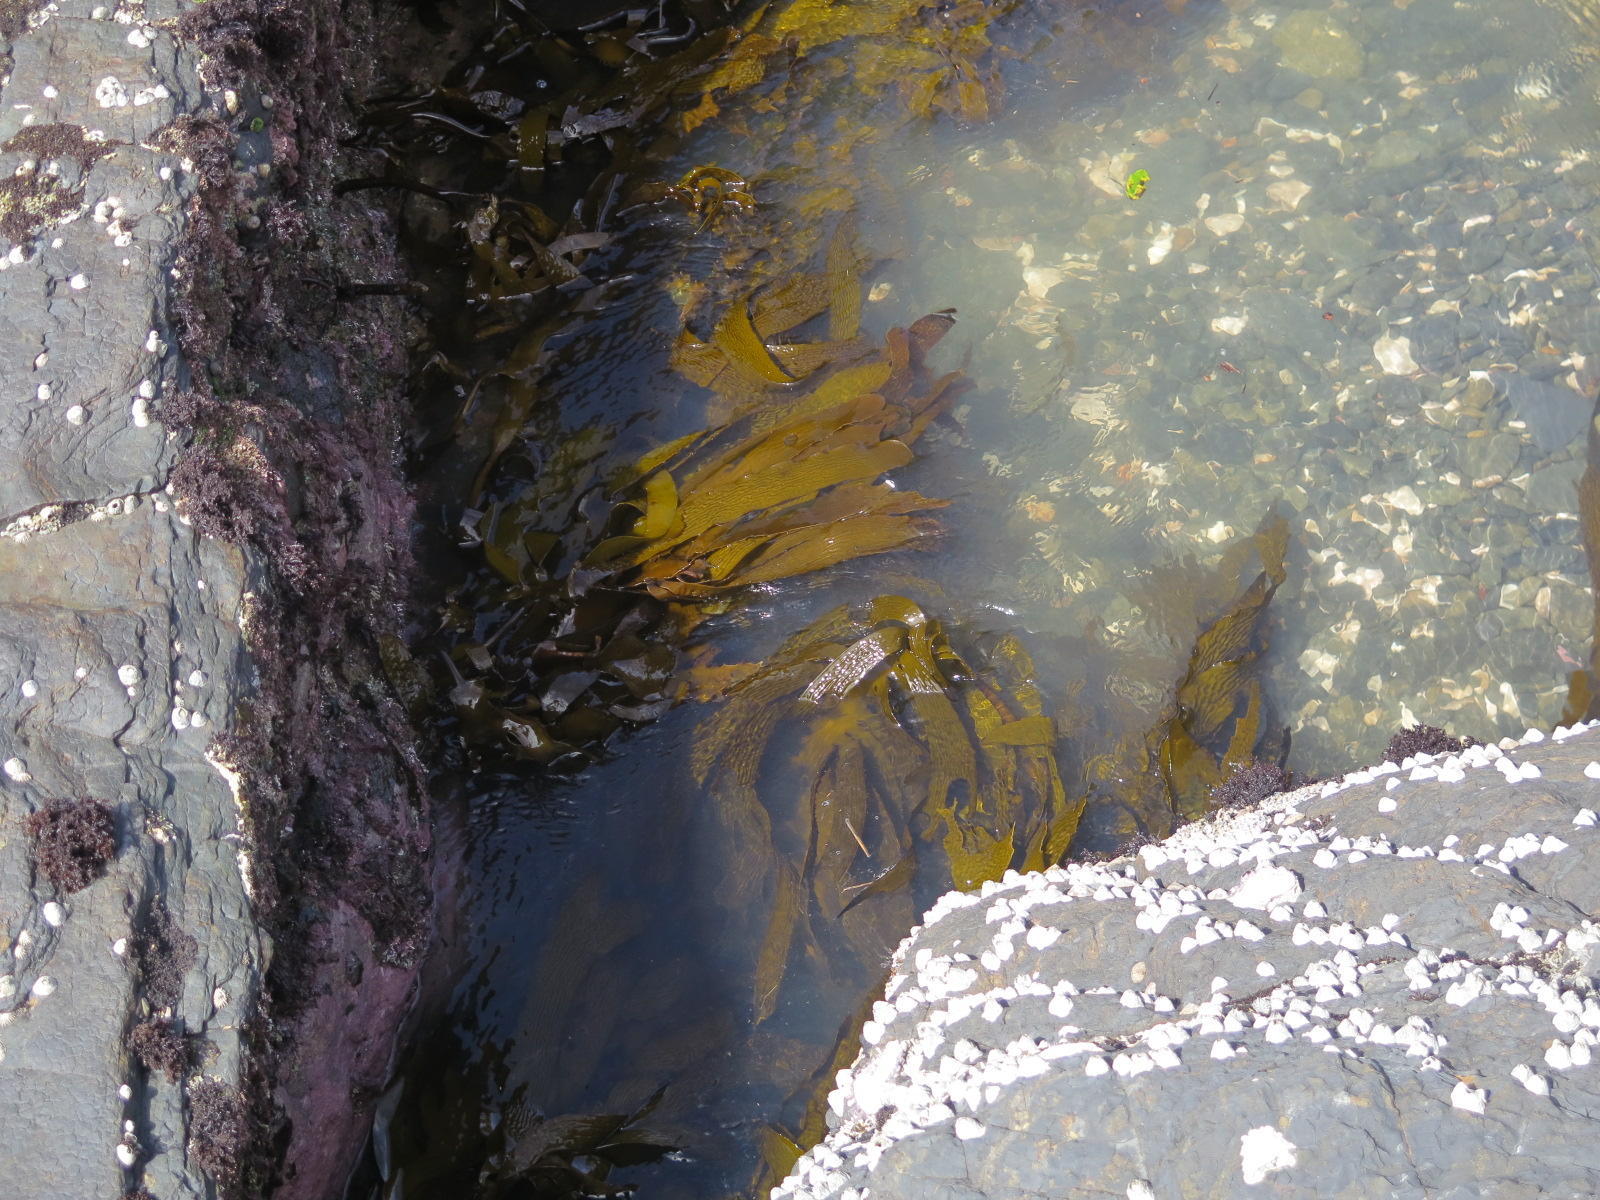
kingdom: Chromista
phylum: Ochrophyta
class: Phaeophyceae
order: Laminariales
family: Lessoniaceae
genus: Ecklonia
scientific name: Ecklonia radiata
